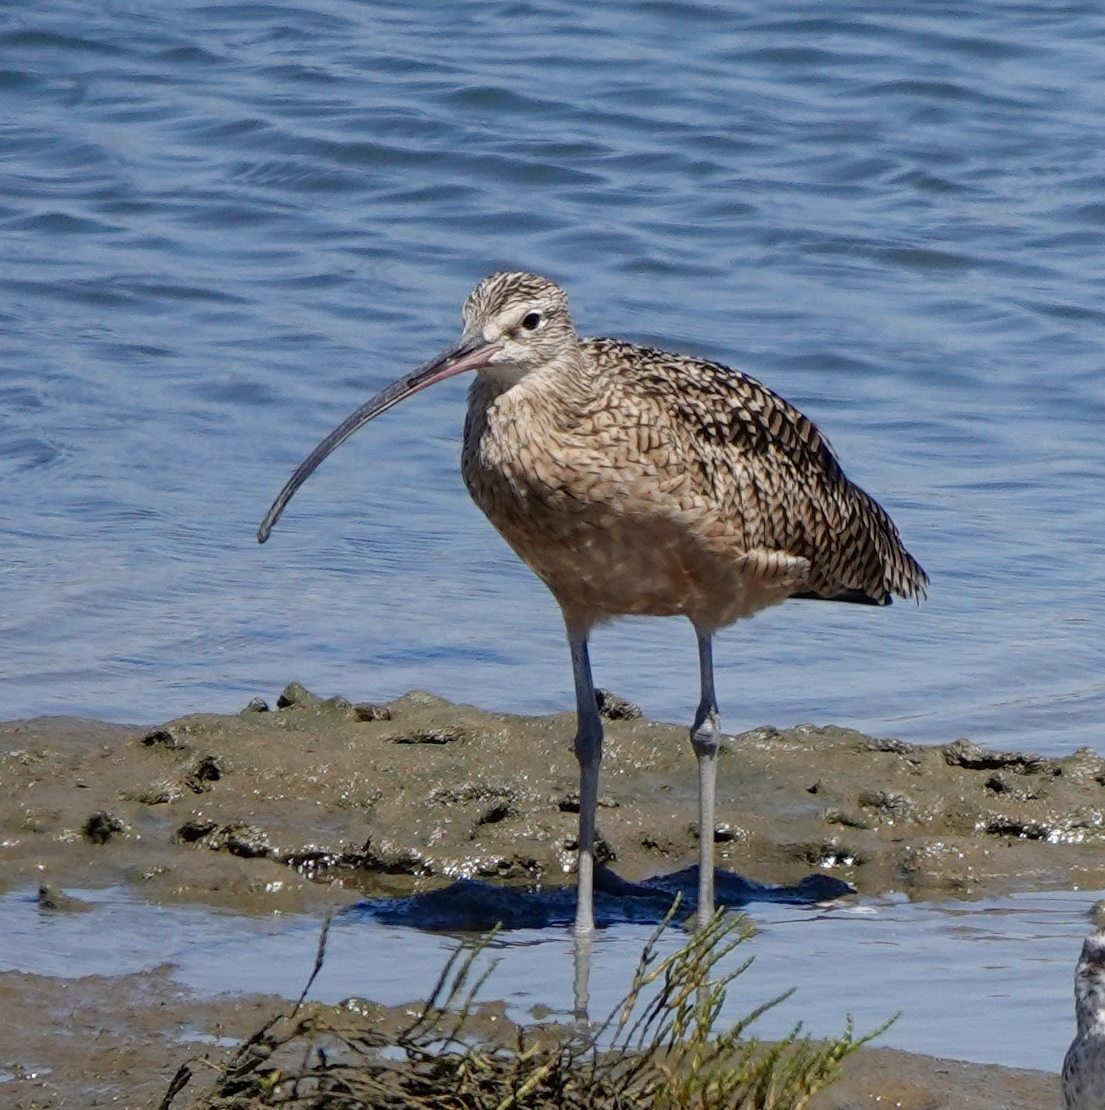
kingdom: Animalia
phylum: Chordata
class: Aves
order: Charadriiformes
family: Scolopacidae
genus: Numenius
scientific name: Numenius americanus
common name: Long-billed curlew
